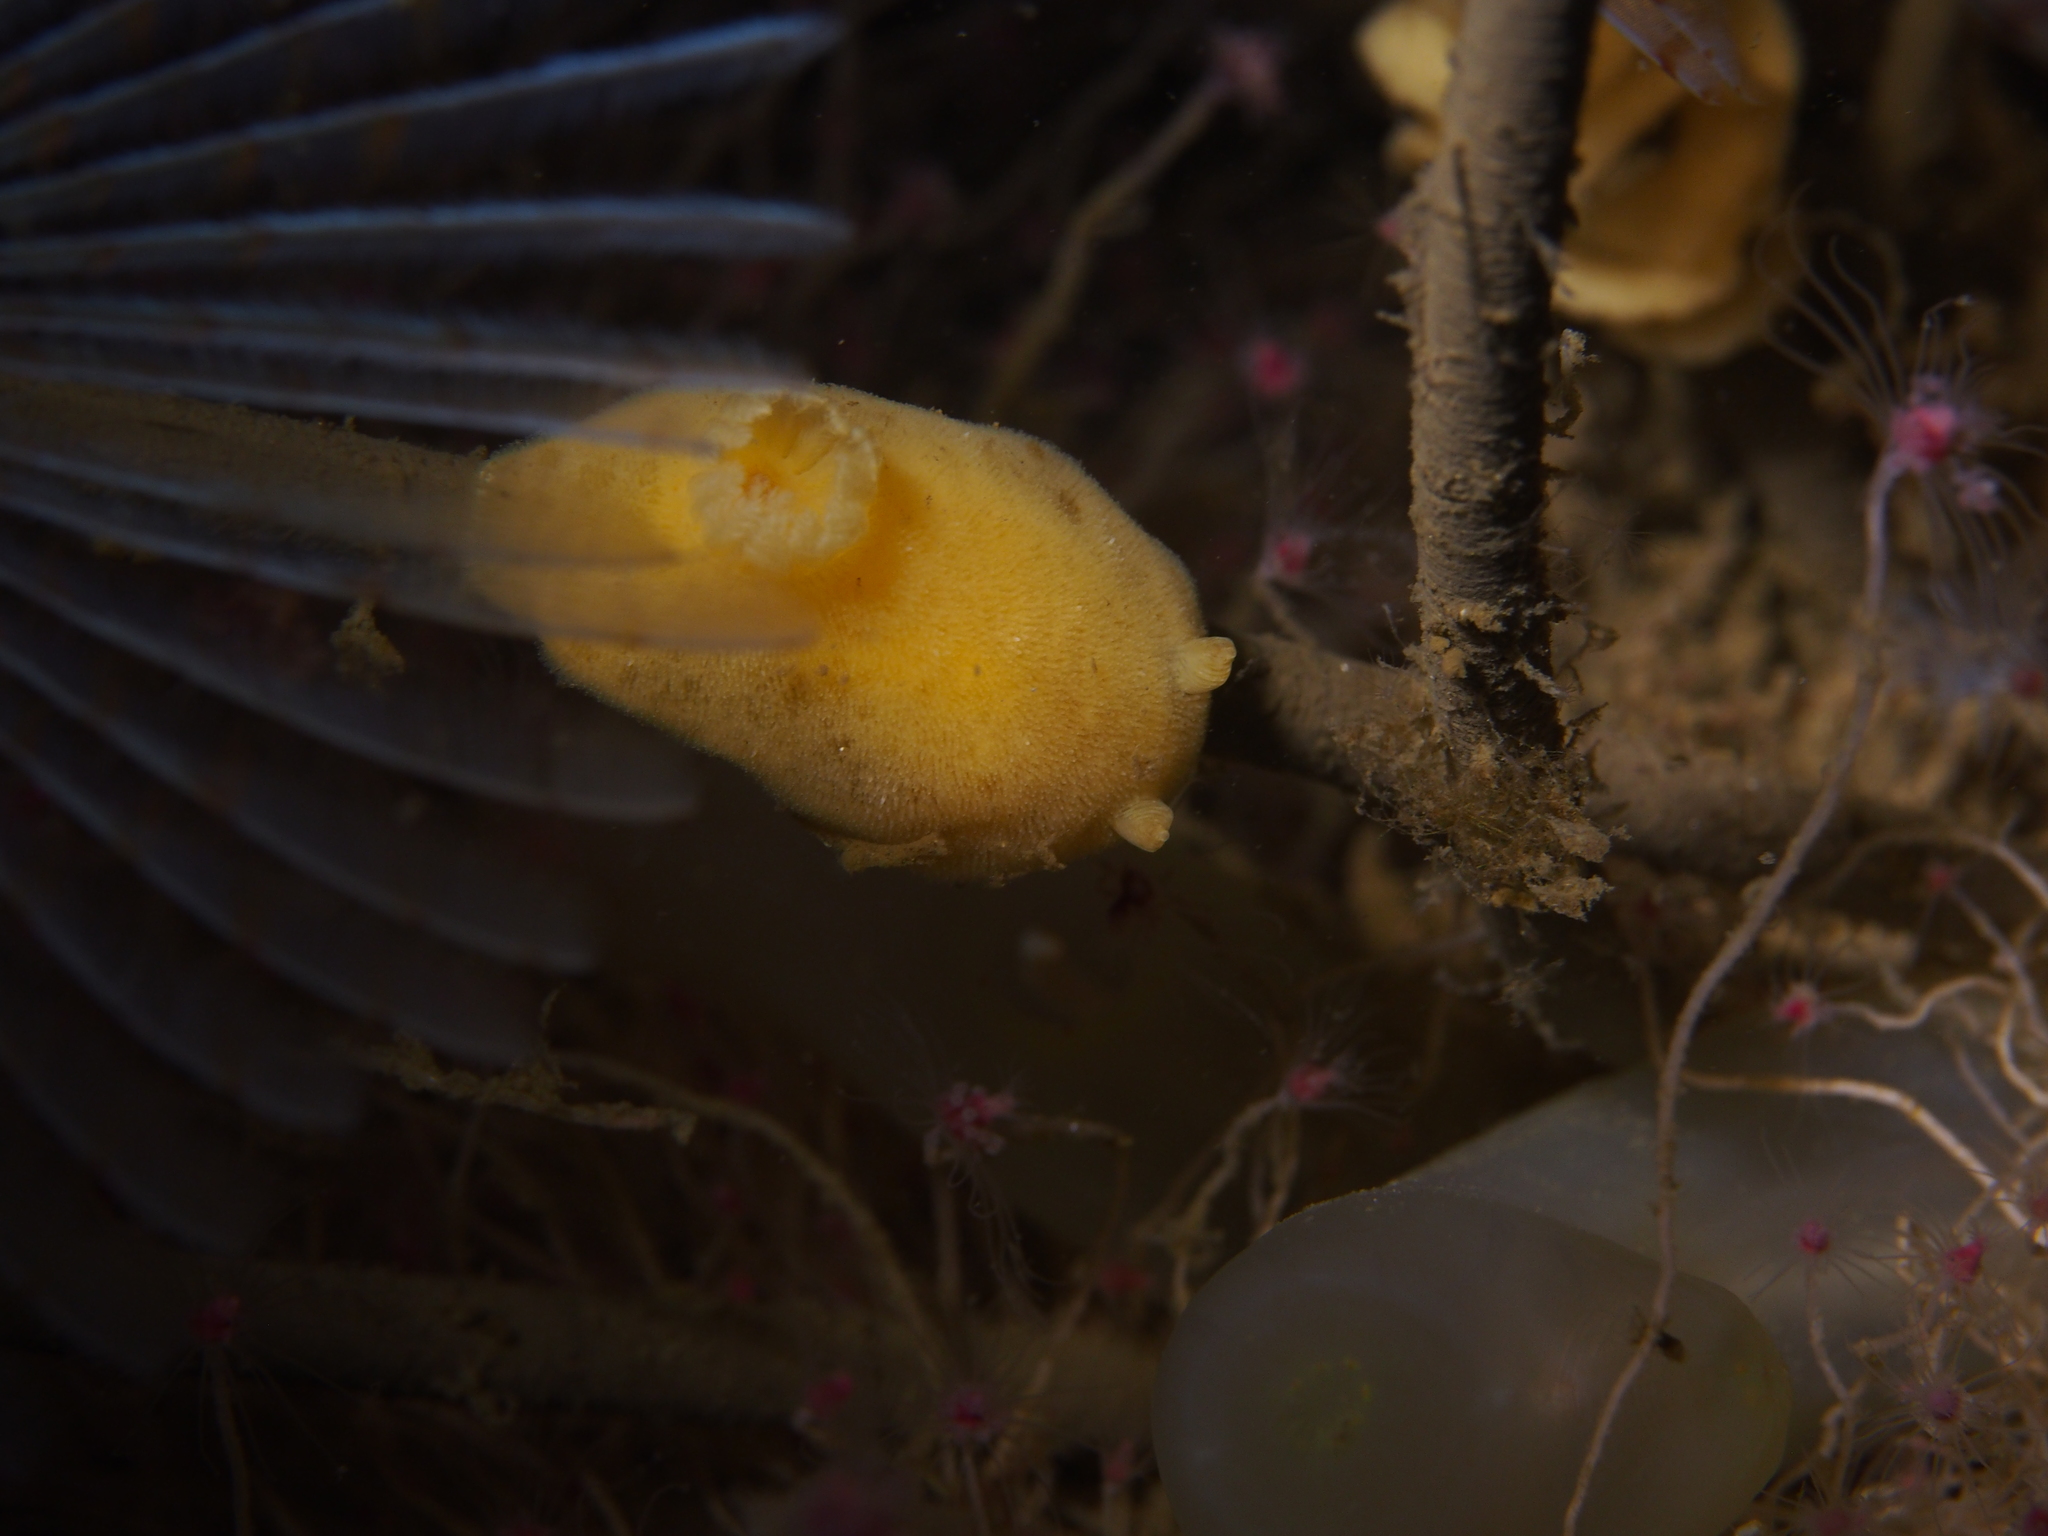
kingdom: Animalia
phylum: Mollusca
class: Gastropoda
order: Nudibranchia
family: Discodorididae
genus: Jorunna
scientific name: Jorunna tomentosa
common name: Grey sea slug
